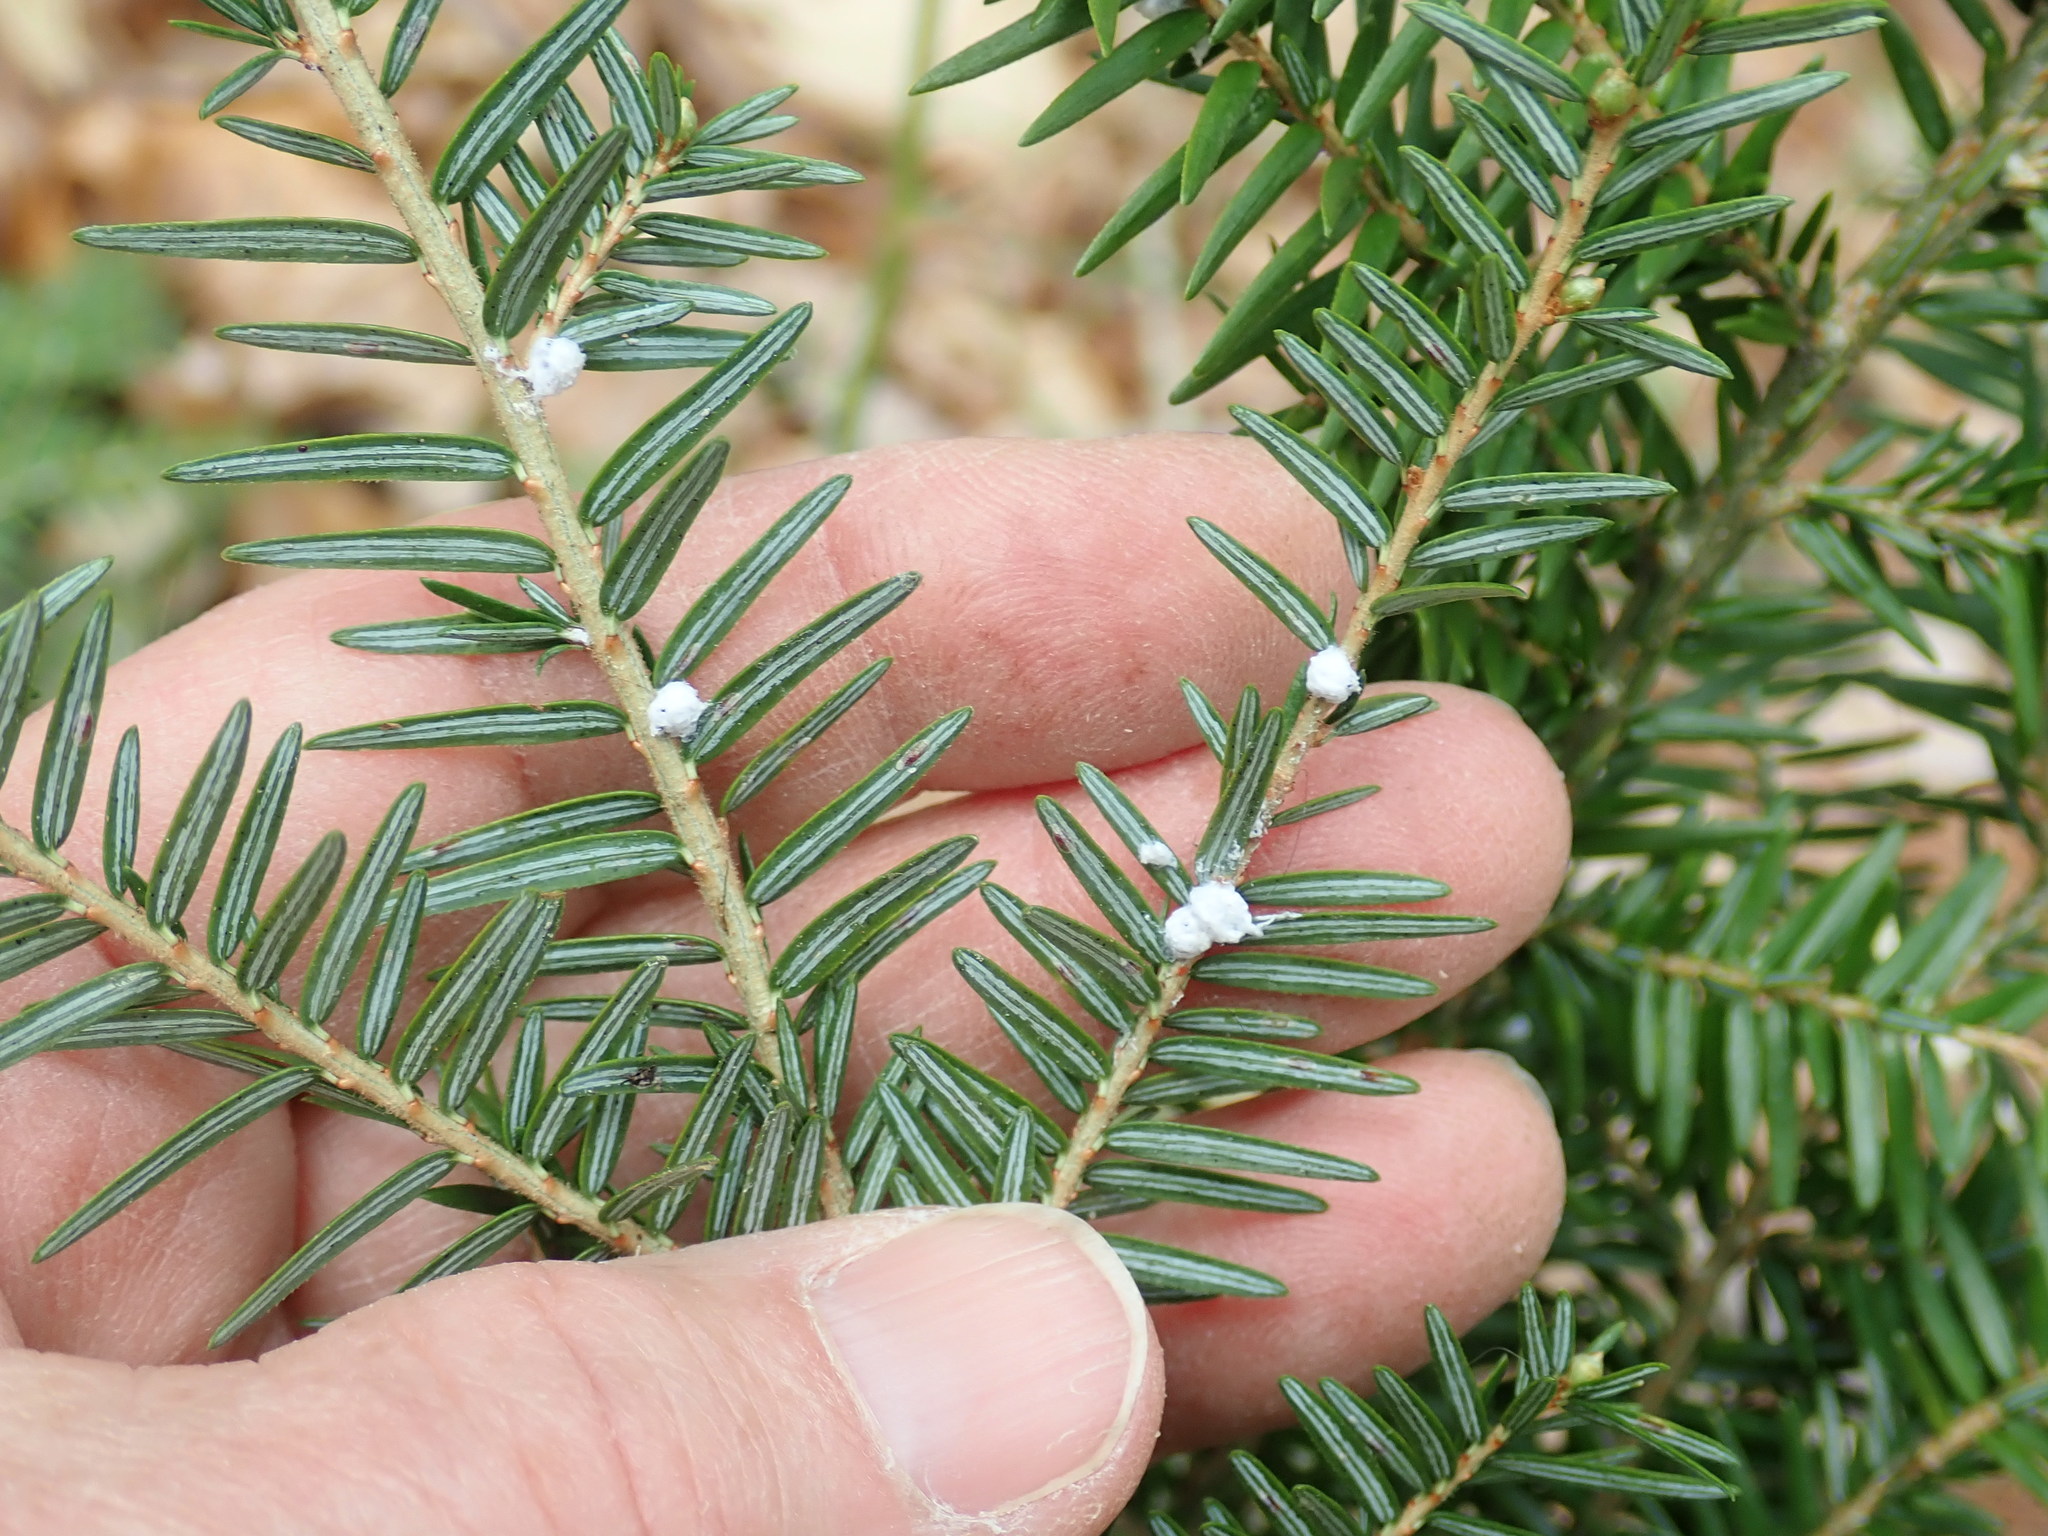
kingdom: Animalia
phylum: Arthropoda
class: Insecta
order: Hemiptera
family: Adelgidae
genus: Adelges
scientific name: Adelges tsugae
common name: Hemlock woolly adelgid
